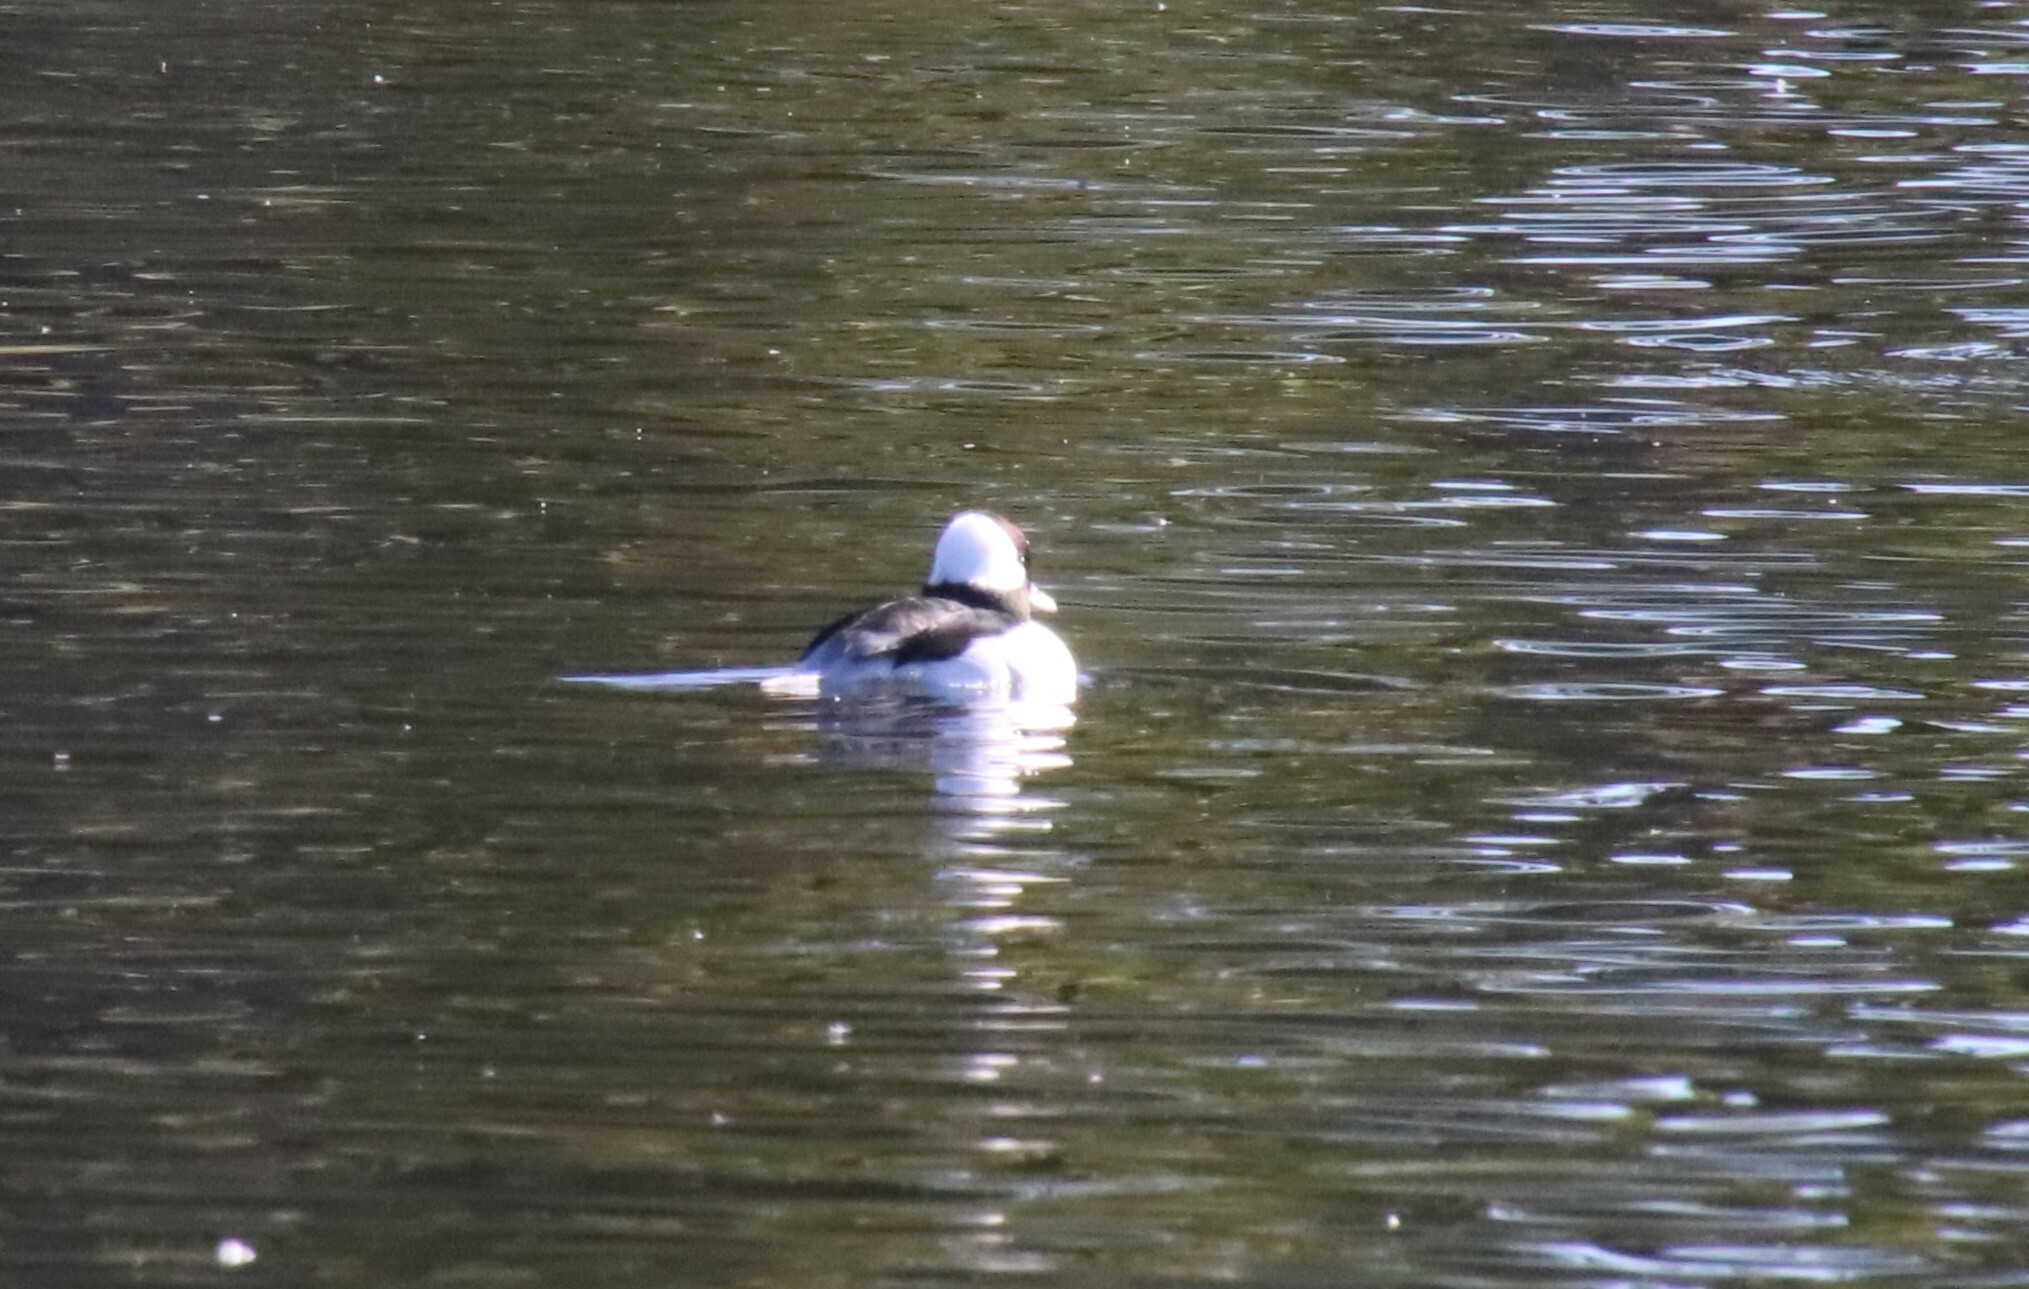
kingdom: Animalia
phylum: Chordata
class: Aves
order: Anseriformes
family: Anatidae
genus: Bucephala
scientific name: Bucephala albeola
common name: Bufflehead
